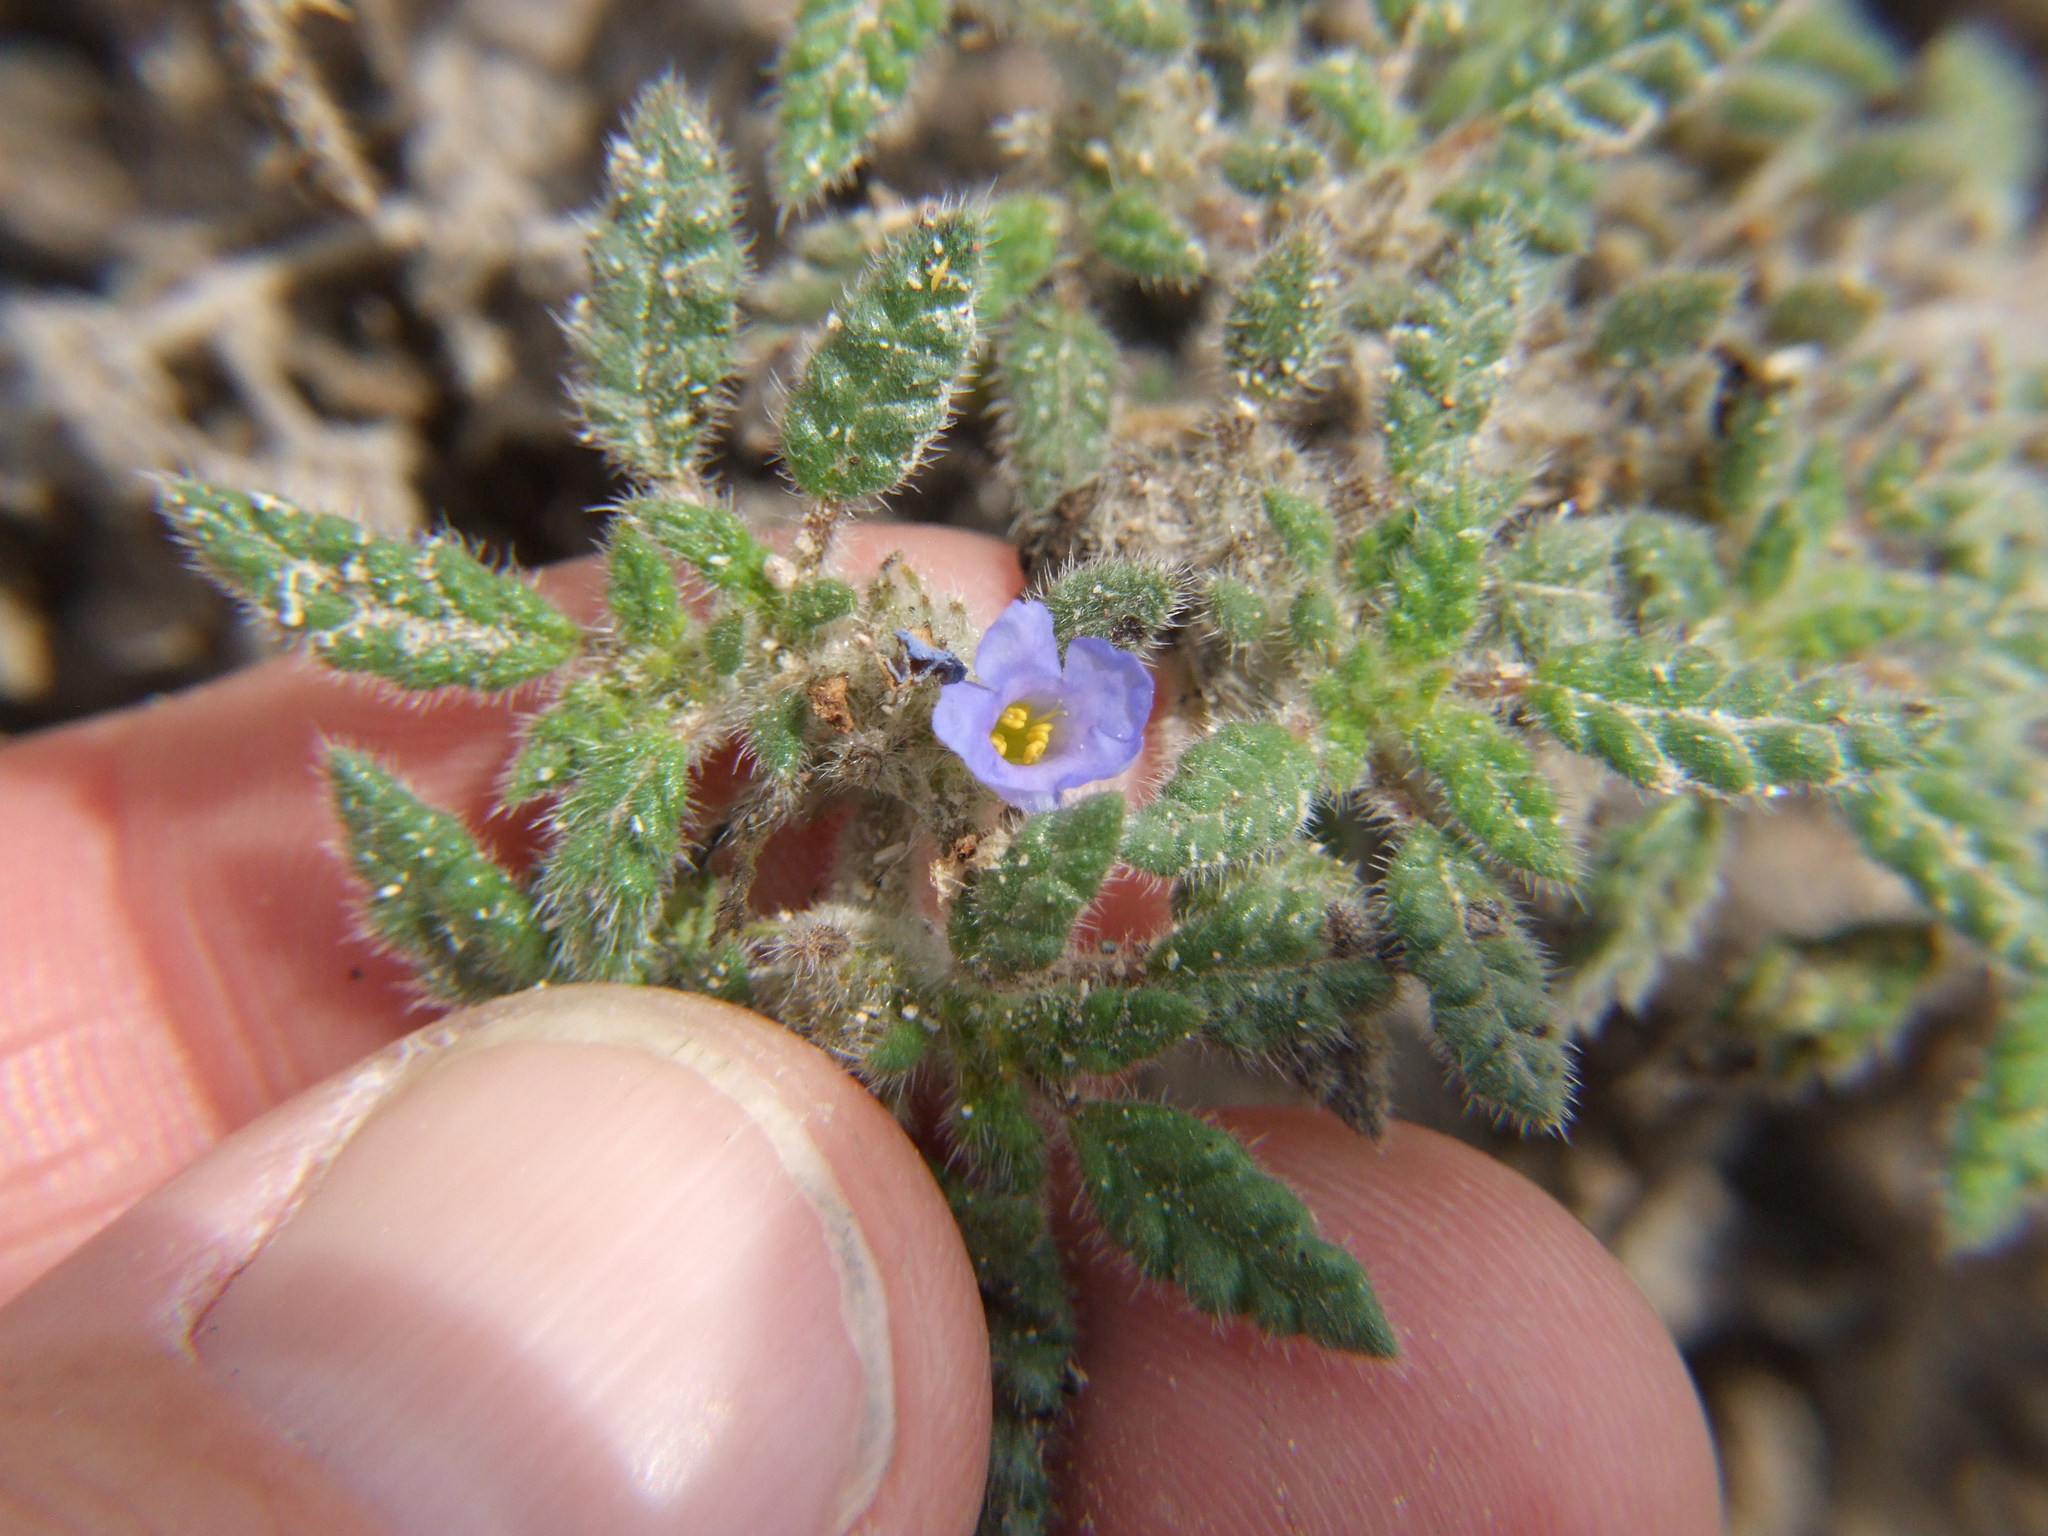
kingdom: Plantae
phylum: Tracheophyta
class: Magnoliopsida
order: Boraginales
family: Ehretiaceae
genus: Tiquilia
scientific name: Tiquilia elongata
